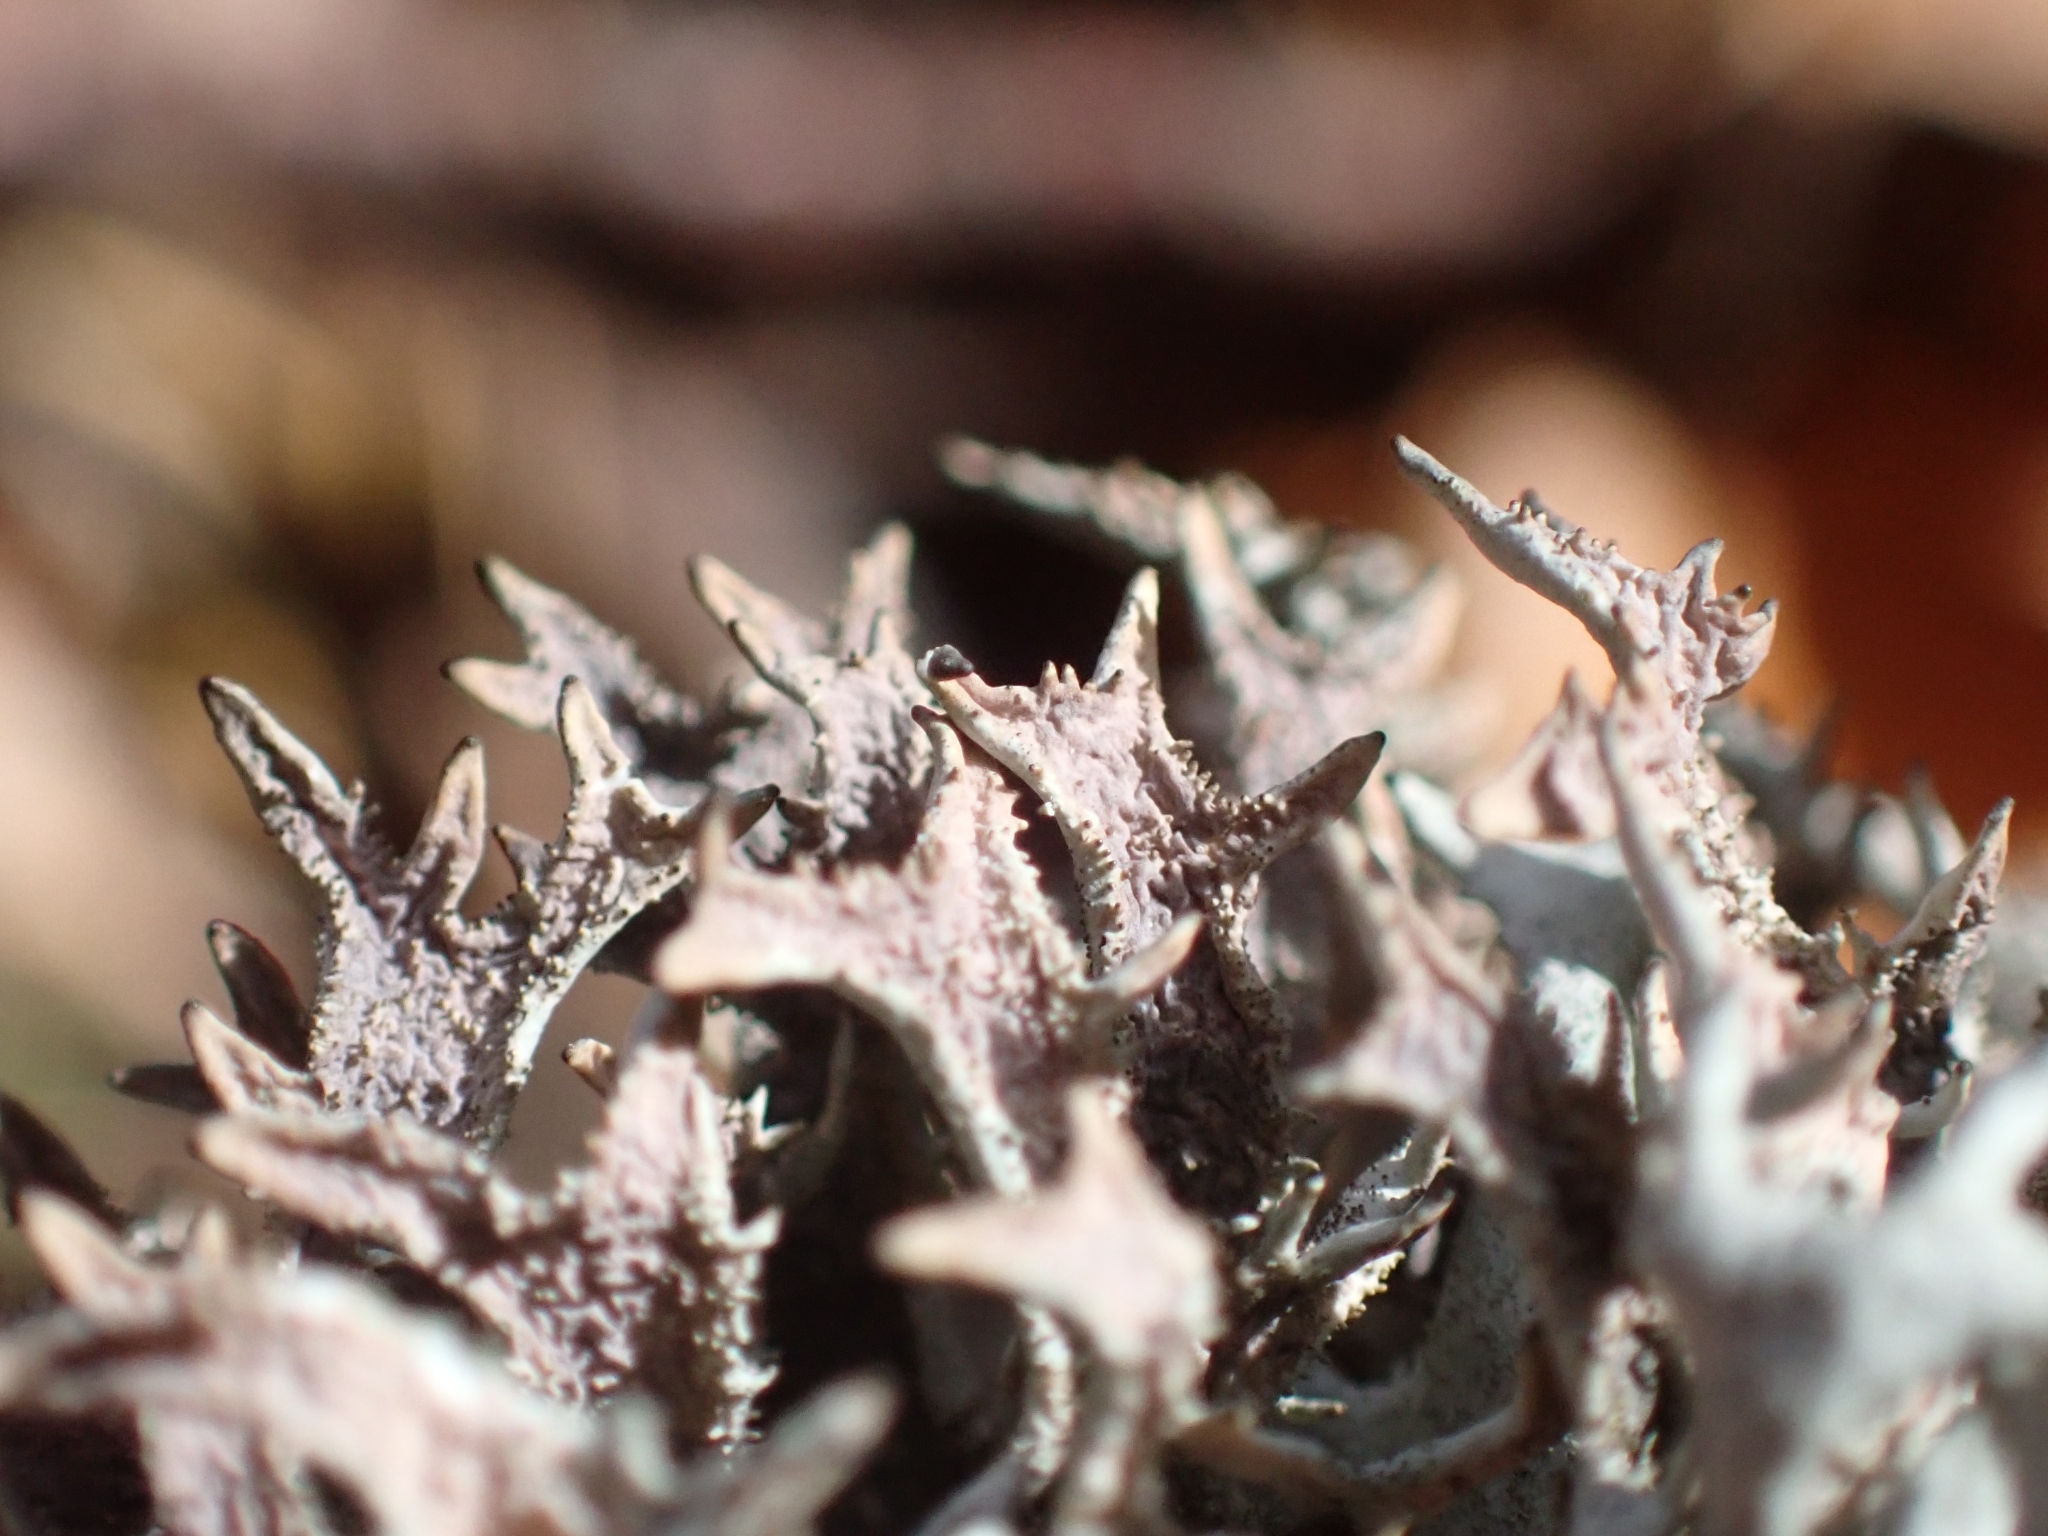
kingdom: Fungi
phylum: Ascomycota
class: Lecanoromycetes
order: Lecanorales
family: Parmeliaceae
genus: Pseudevernia
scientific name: Pseudevernia furfuracea
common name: Tree moss
